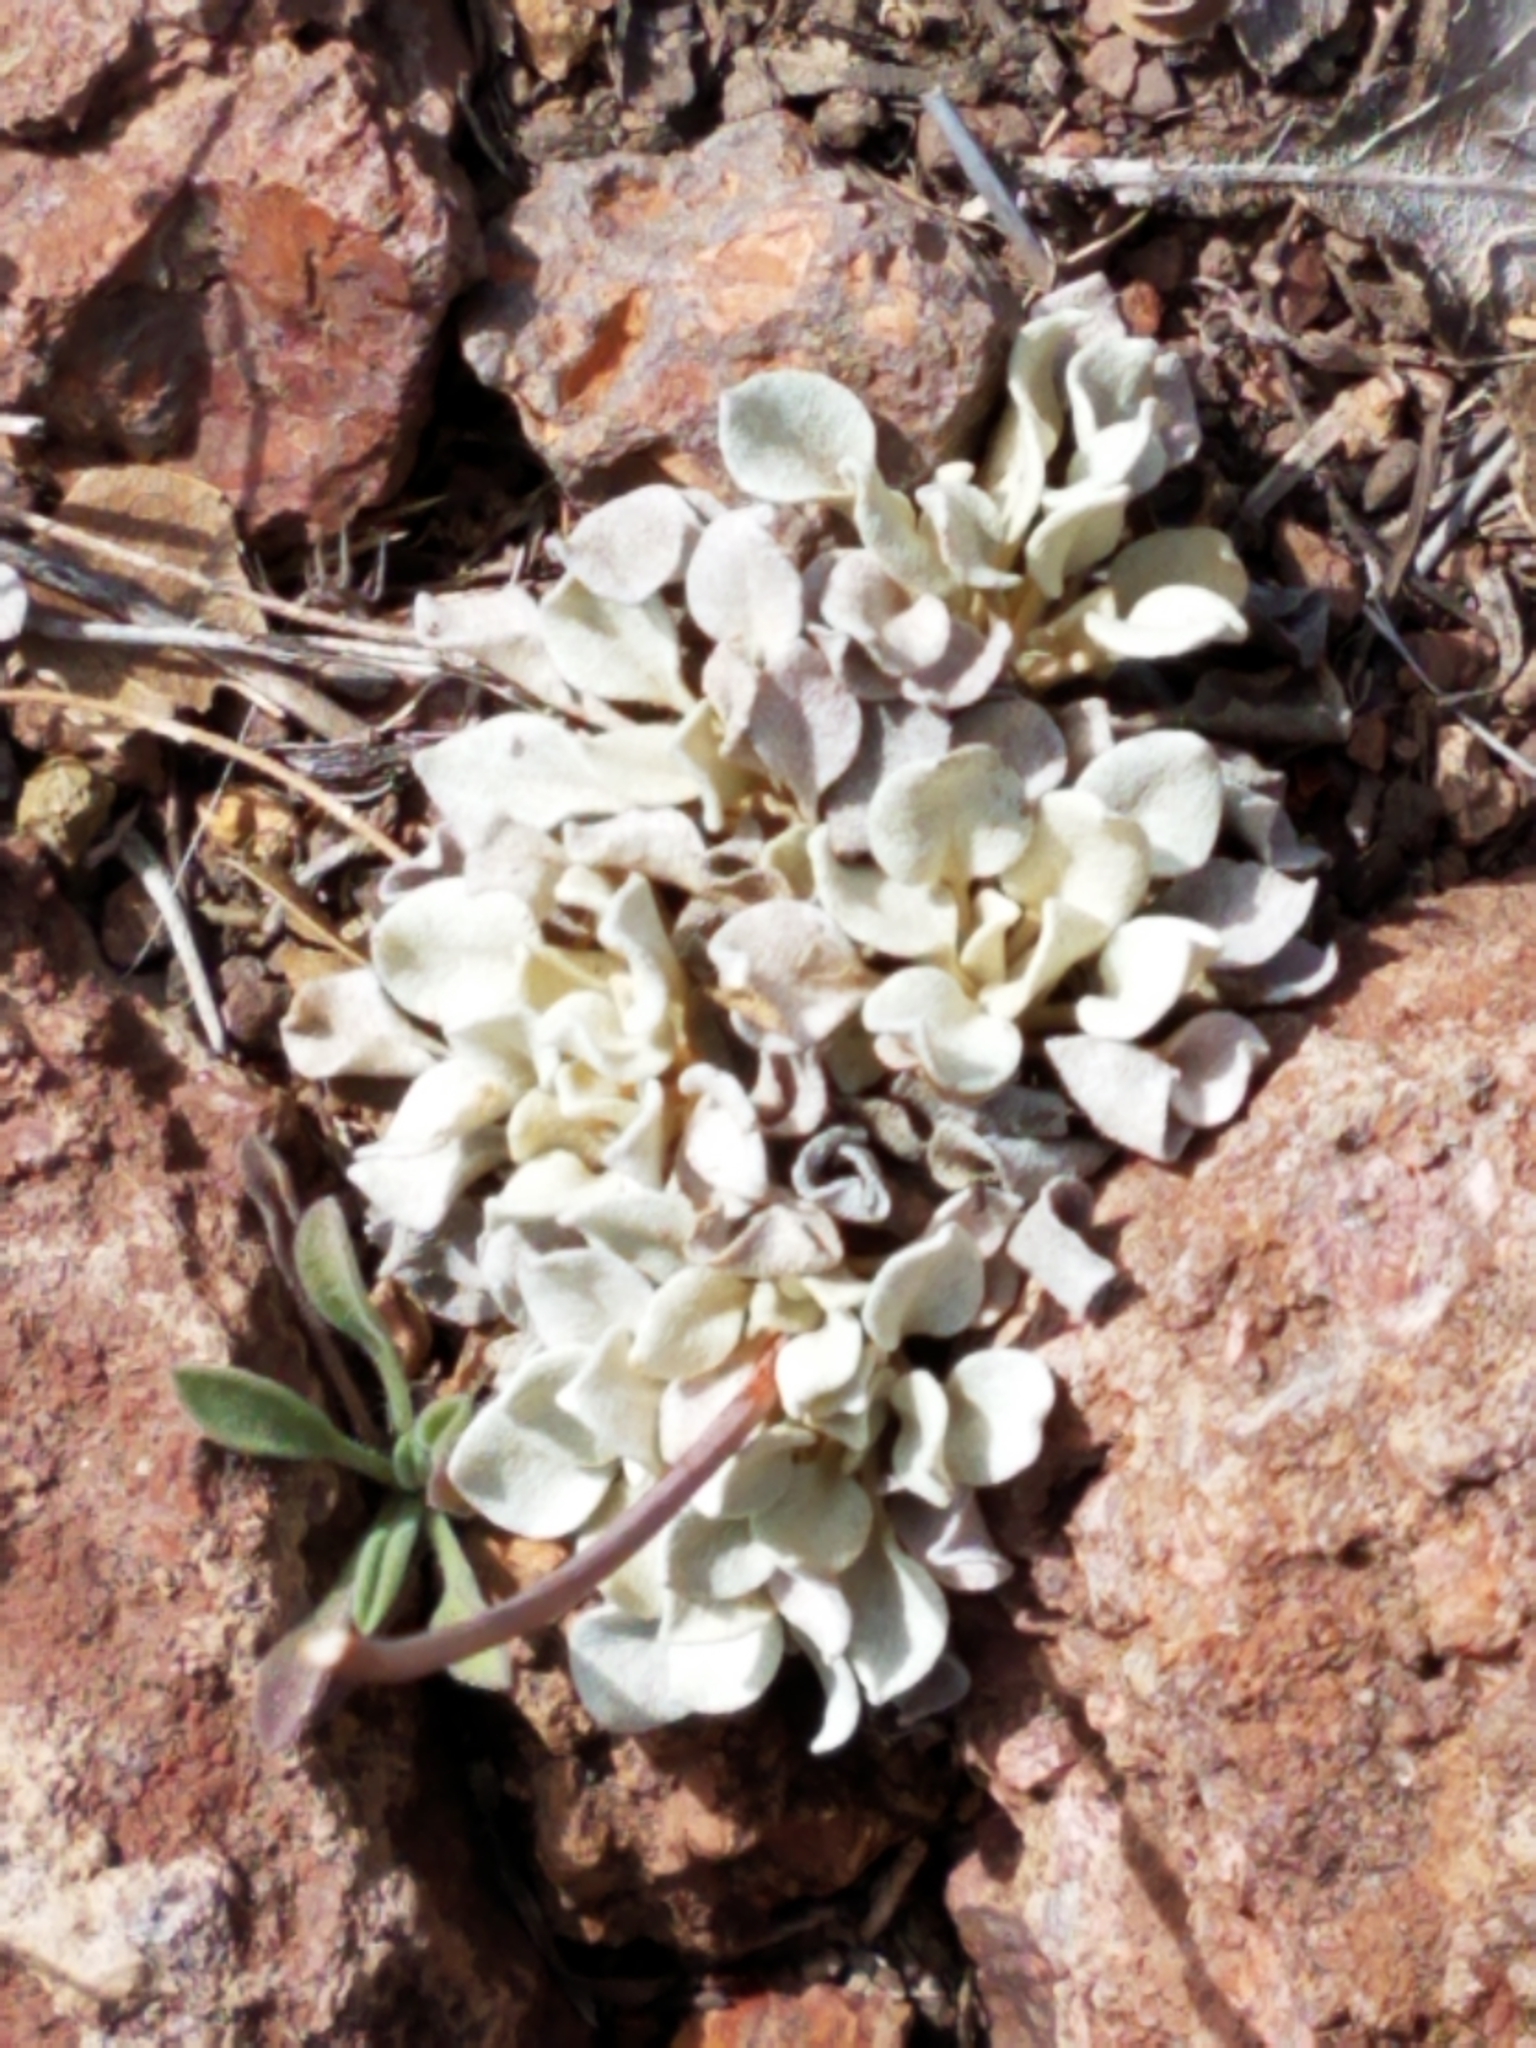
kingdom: Plantae
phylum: Tracheophyta
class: Magnoliopsida
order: Caryophyllales
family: Polygonaceae
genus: Eriogonum
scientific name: Eriogonum tenellum
